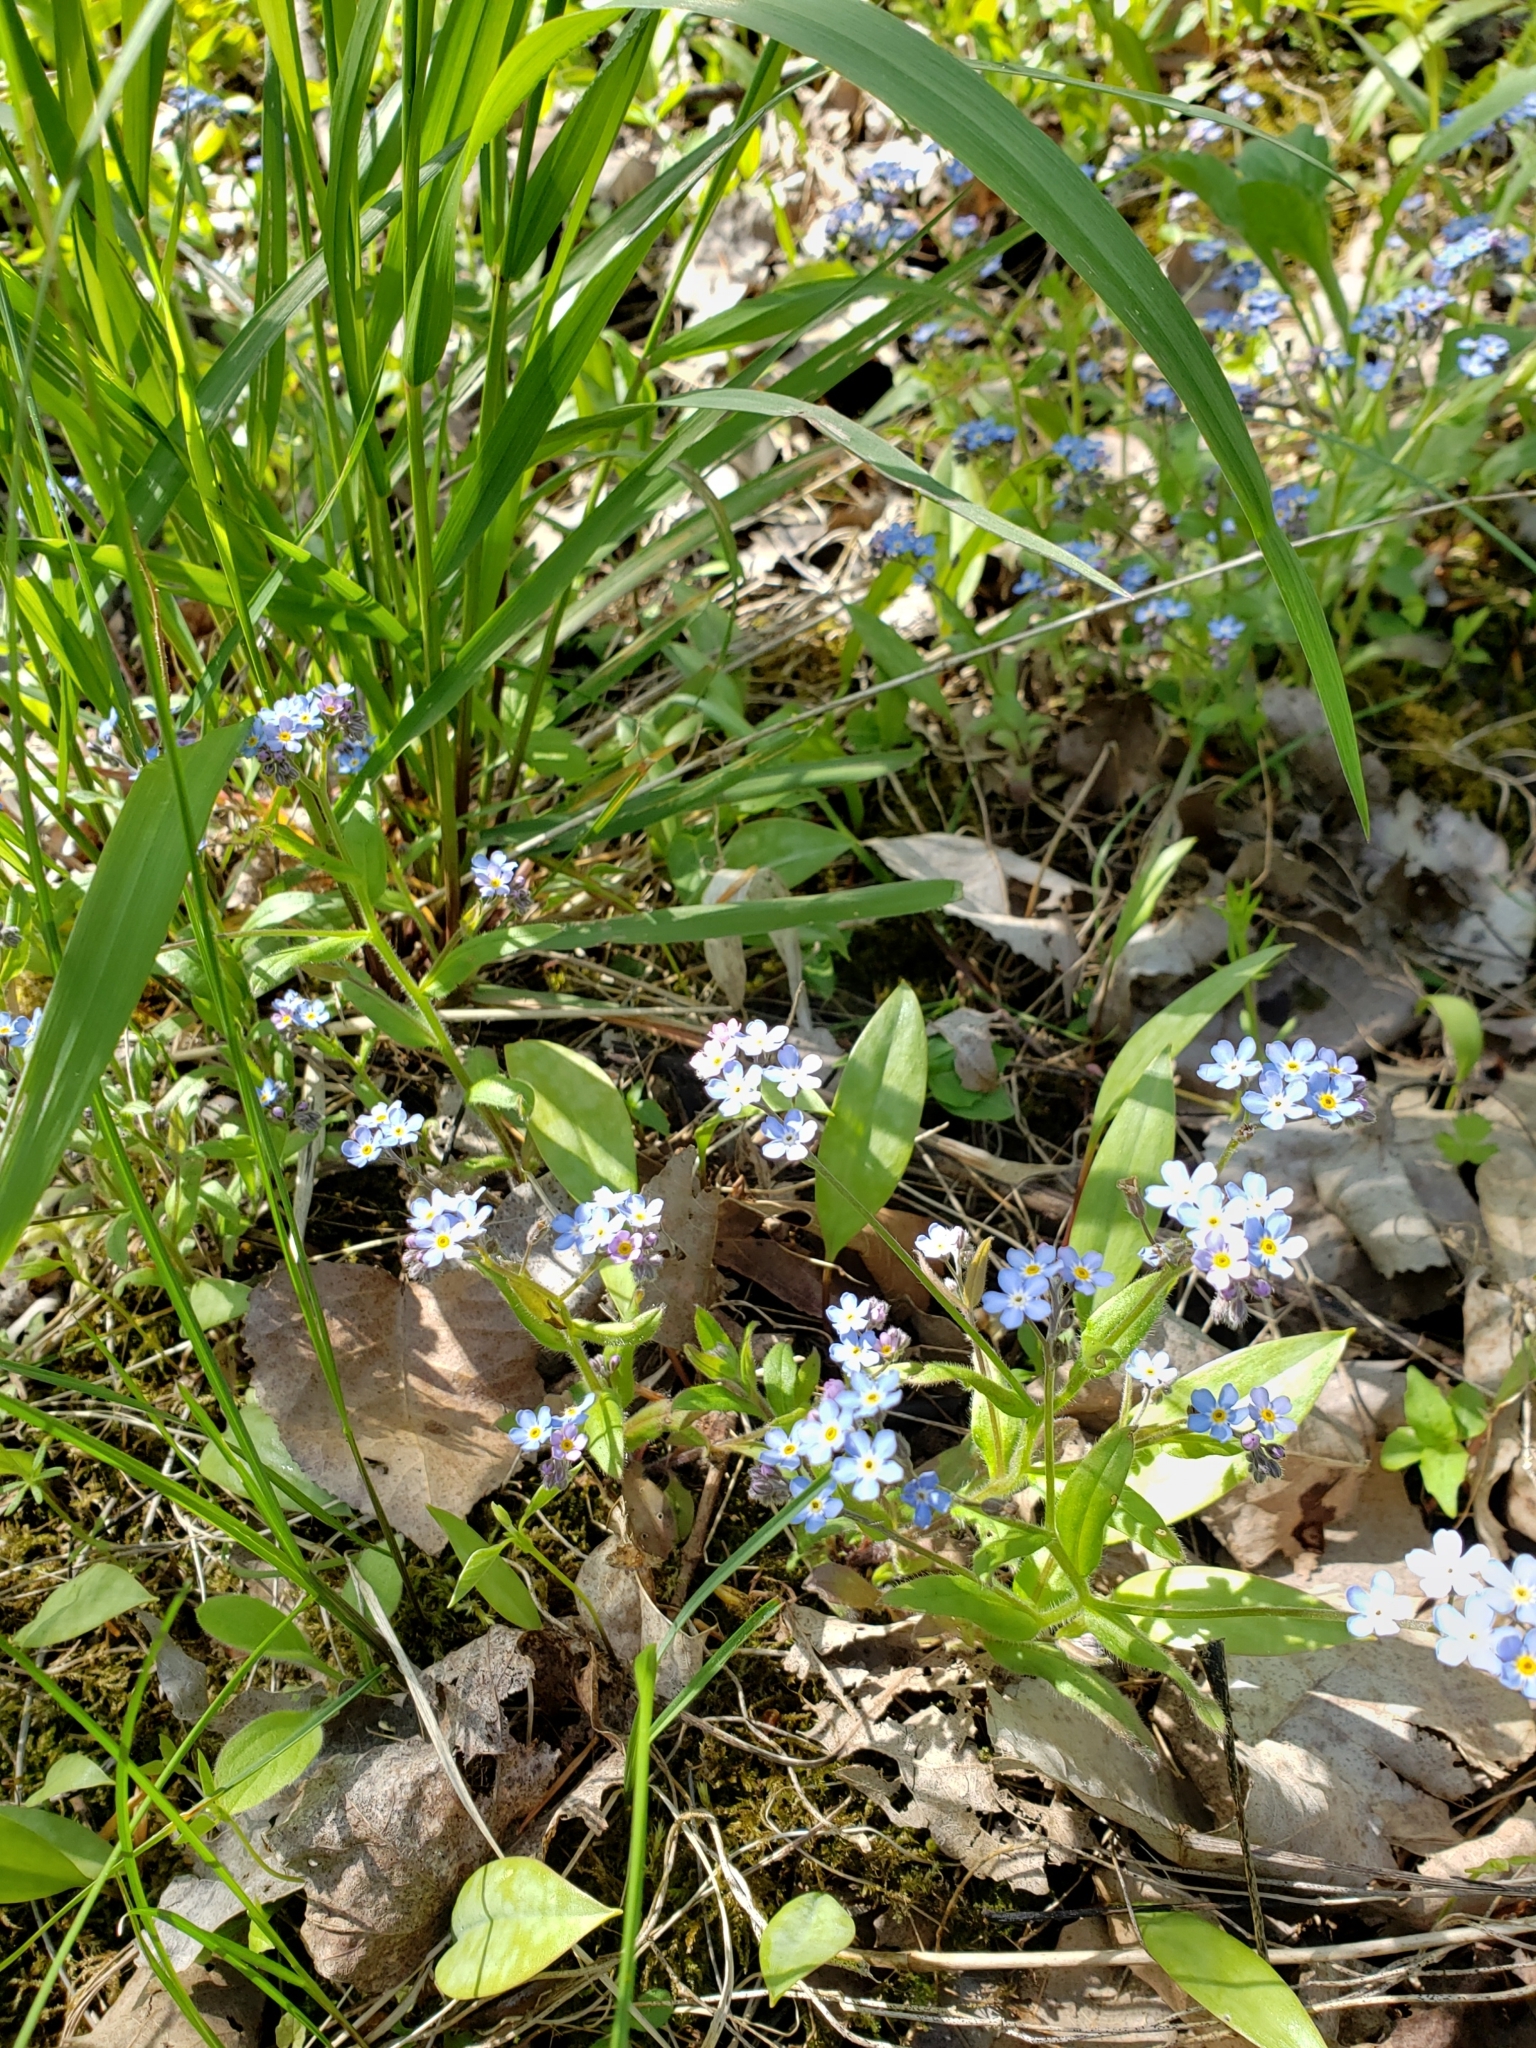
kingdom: Plantae
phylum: Tracheophyta
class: Magnoliopsida
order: Boraginales
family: Boraginaceae
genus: Myosotis
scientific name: Myosotis sylvatica
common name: Wood forget-me-not
